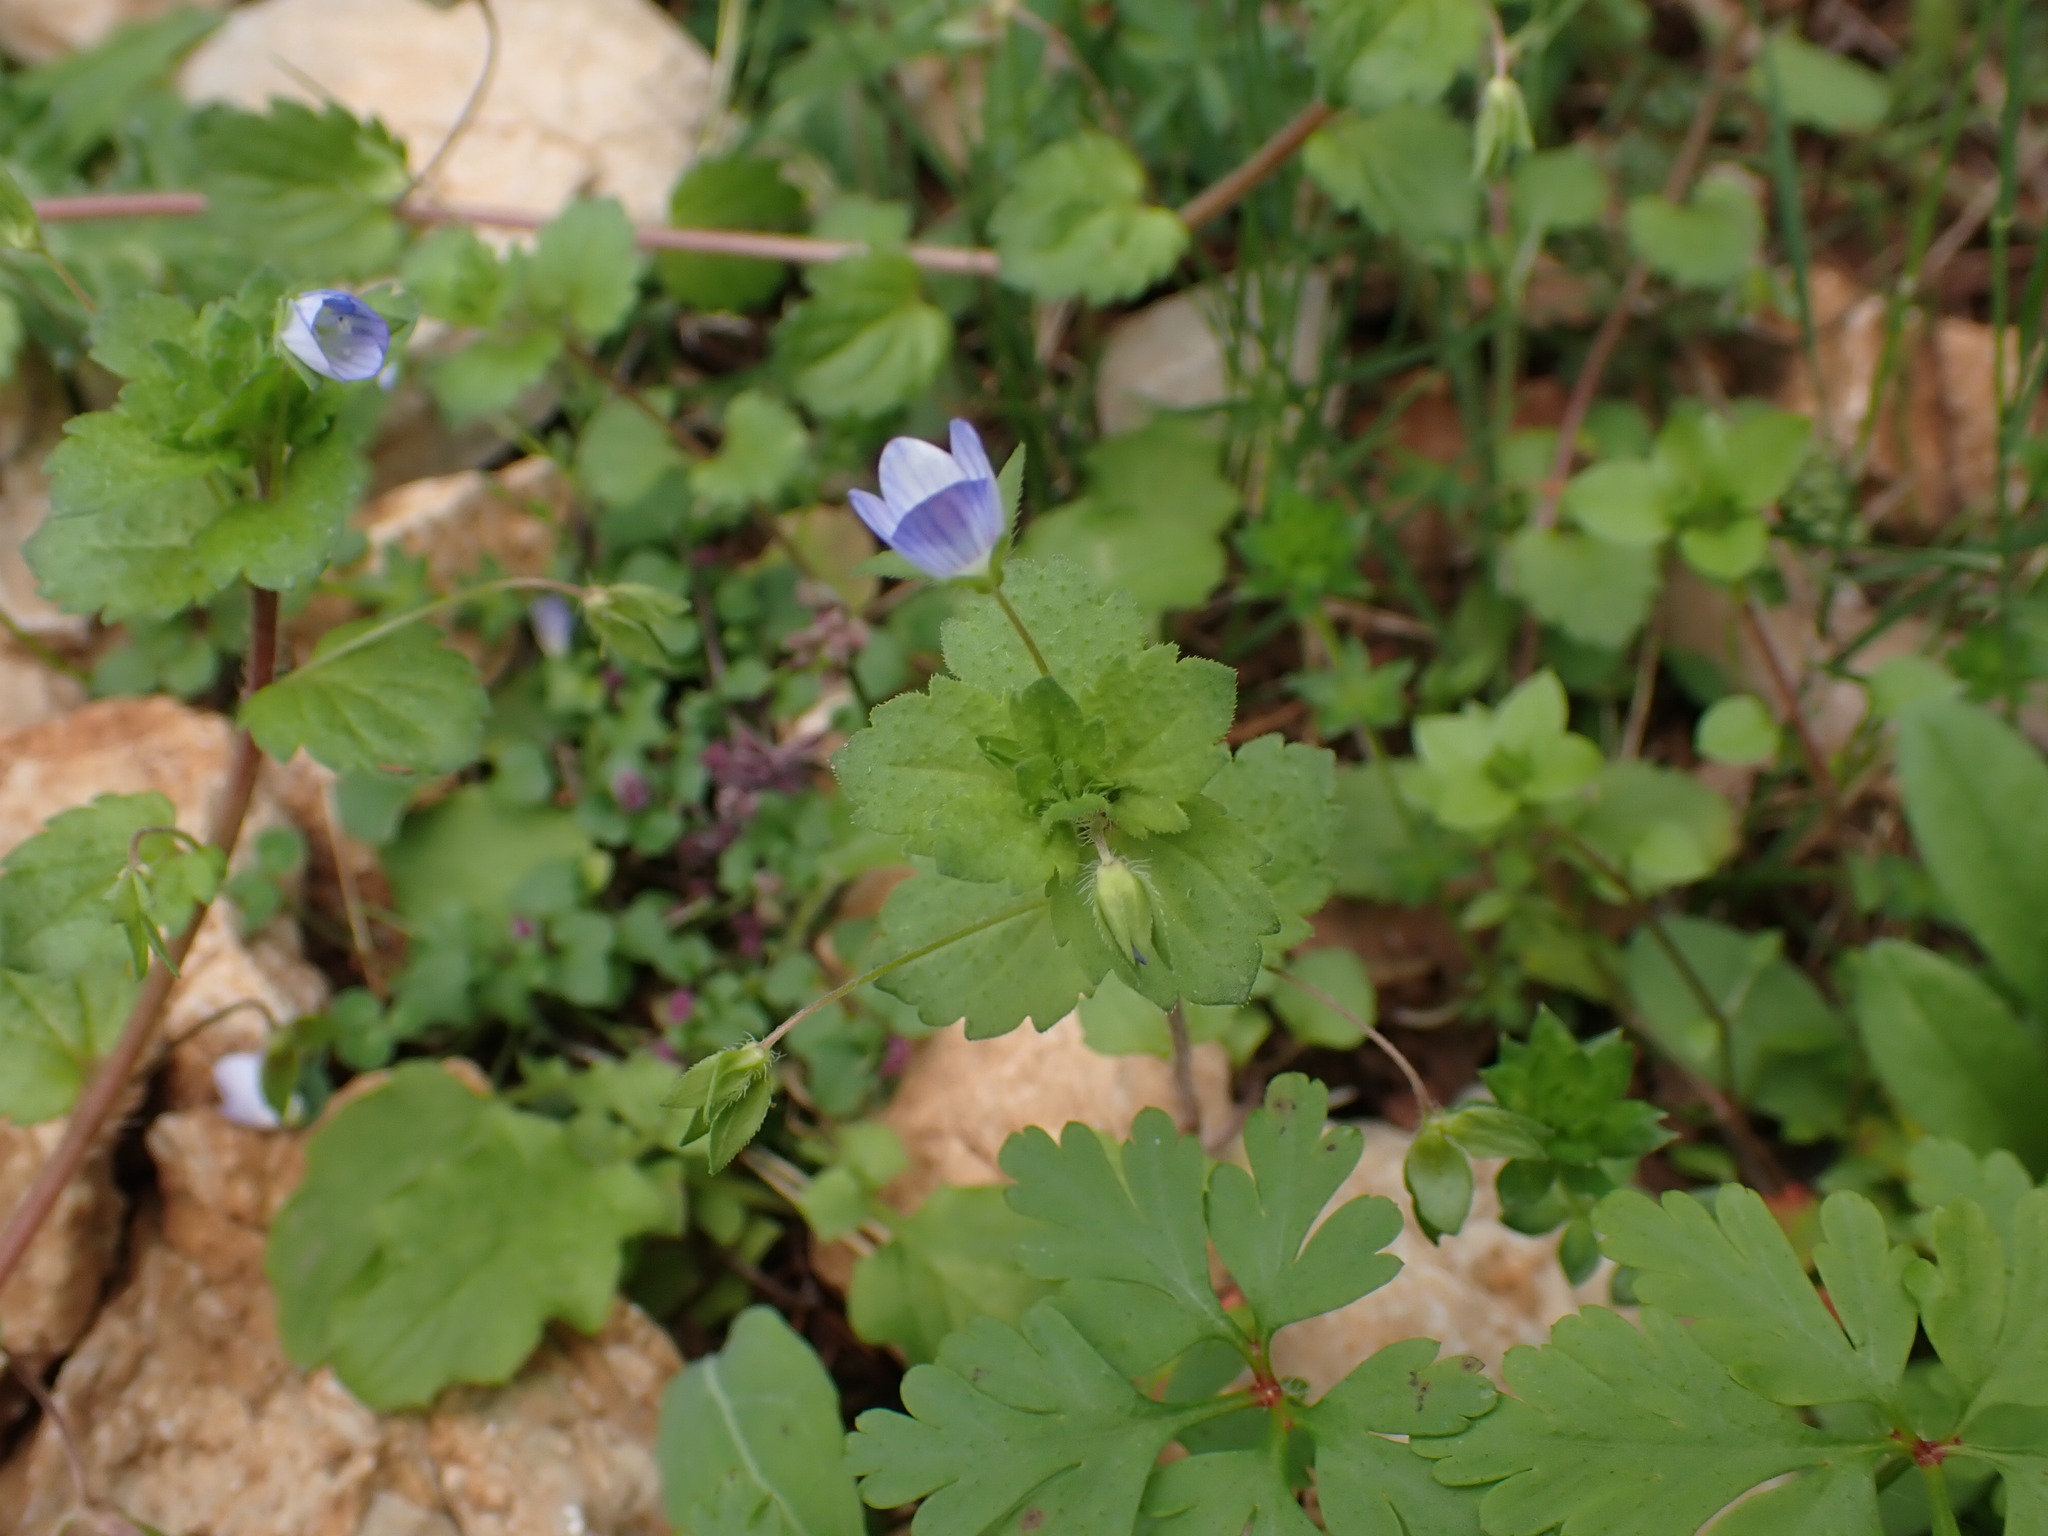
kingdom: Plantae
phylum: Tracheophyta
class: Magnoliopsida
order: Lamiales
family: Plantaginaceae
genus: Veronica
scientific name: Veronica persica
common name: Common field-speedwell
